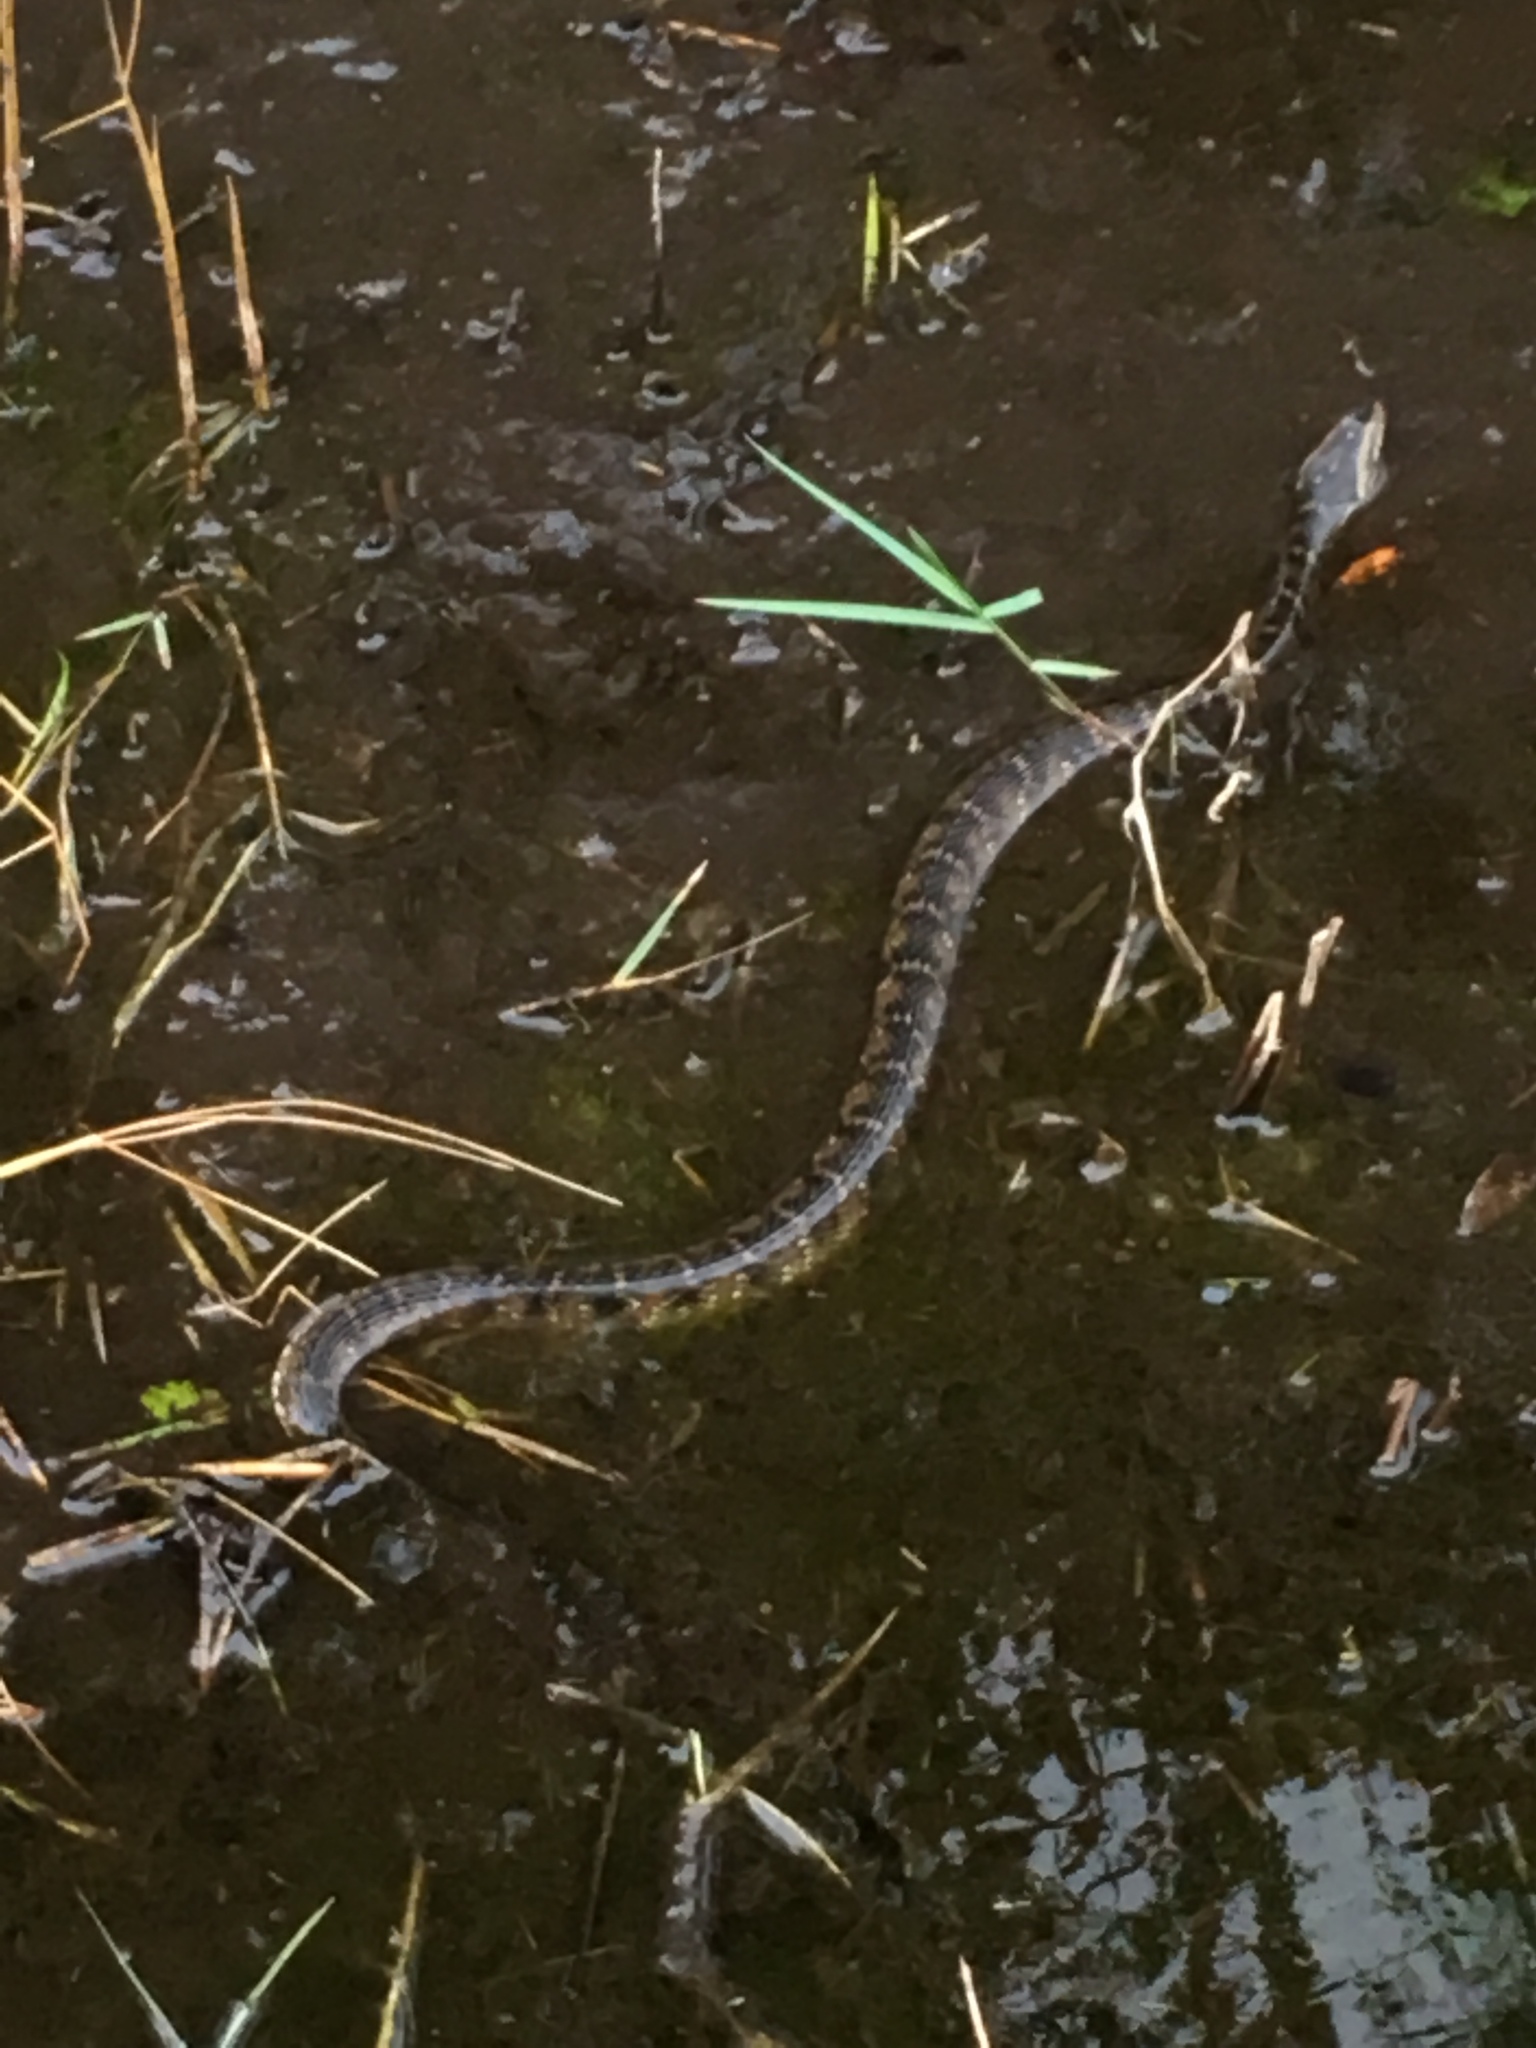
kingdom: Animalia
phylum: Chordata
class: Squamata
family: Colubridae
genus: Nerodia
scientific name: Nerodia fasciata
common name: Southern water snake
